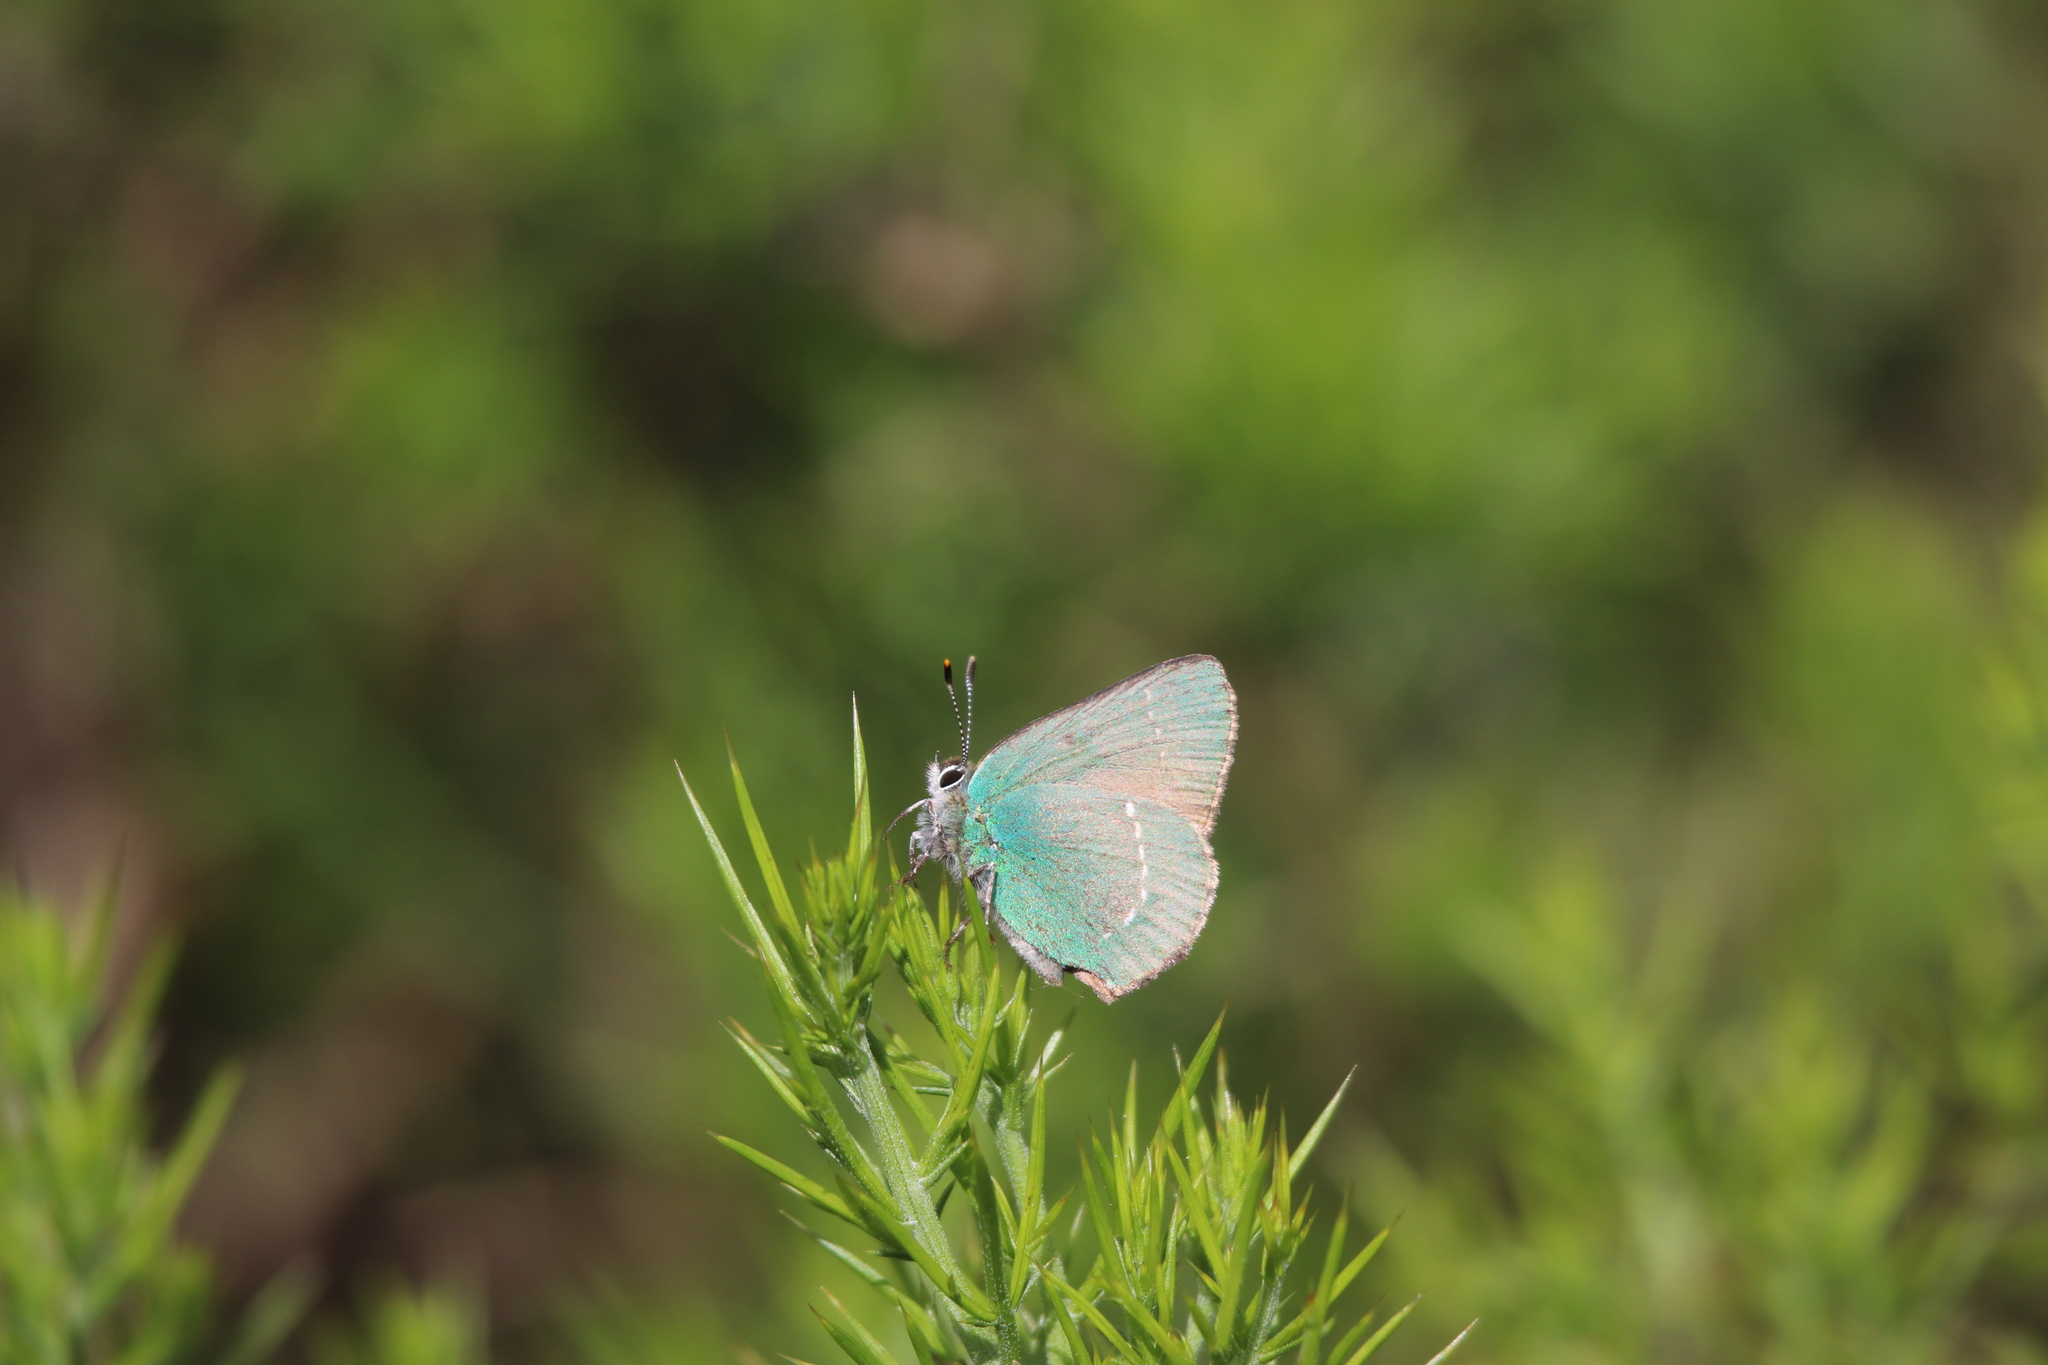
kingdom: Animalia
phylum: Arthropoda
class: Insecta
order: Lepidoptera
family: Lycaenidae
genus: Callophrys
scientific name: Callophrys rubi
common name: Green hairstreak
